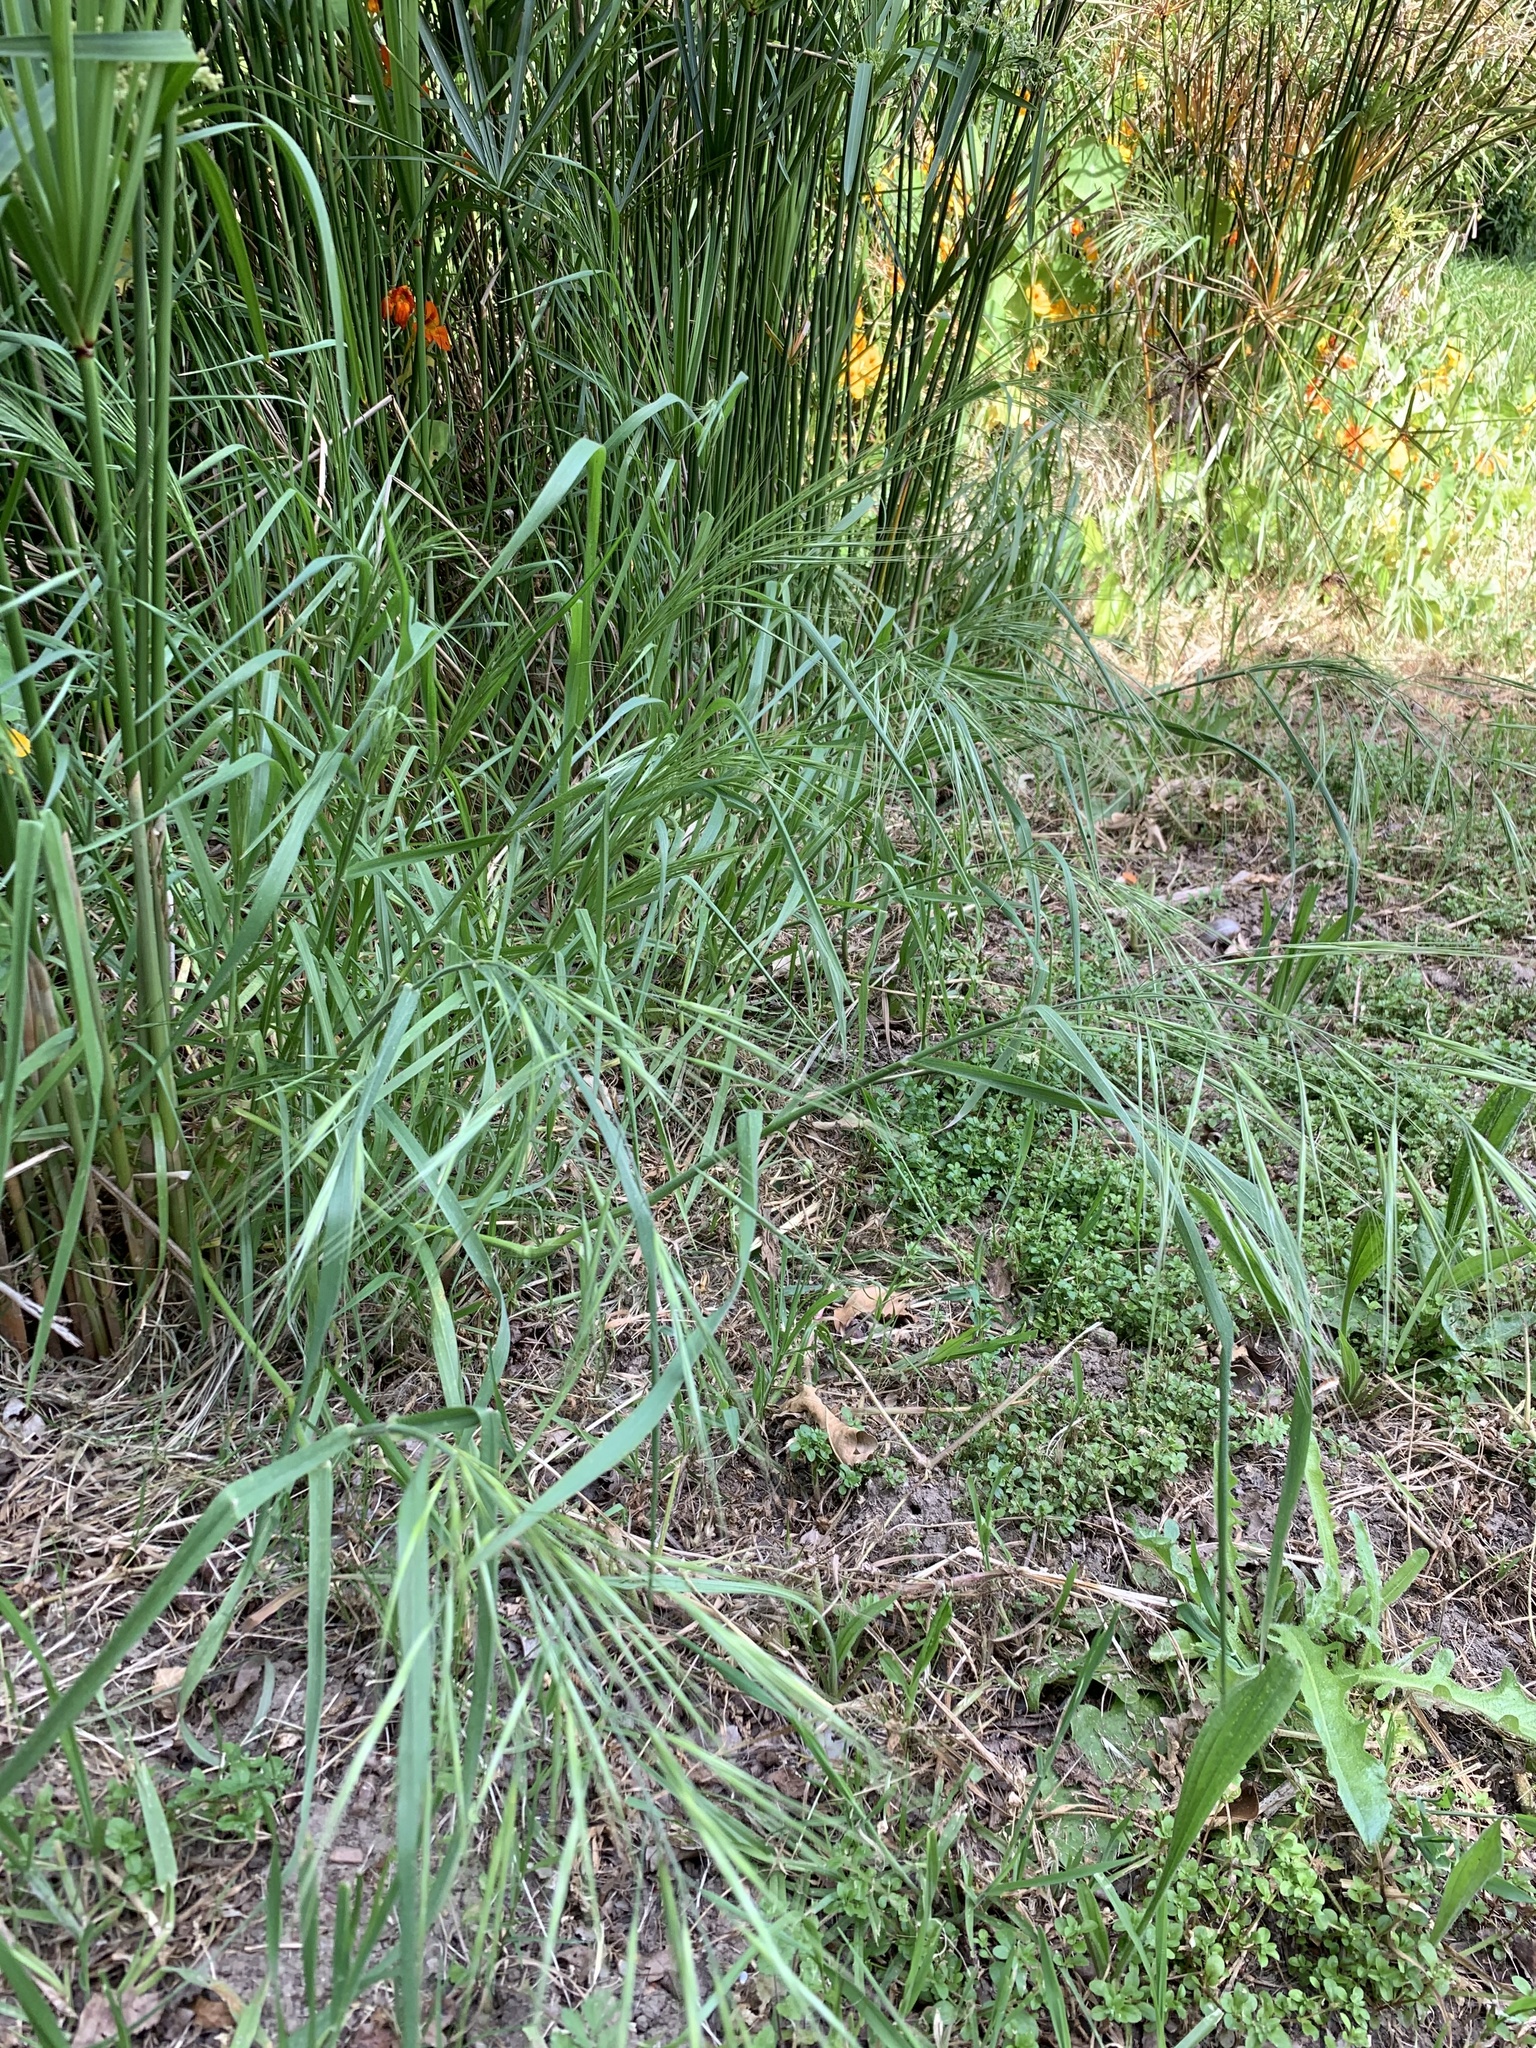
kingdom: Plantae
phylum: Tracheophyta
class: Liliopsida
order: Poales
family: Poaceae
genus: Bromus
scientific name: Bromus diandrus
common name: Ripgut brome
